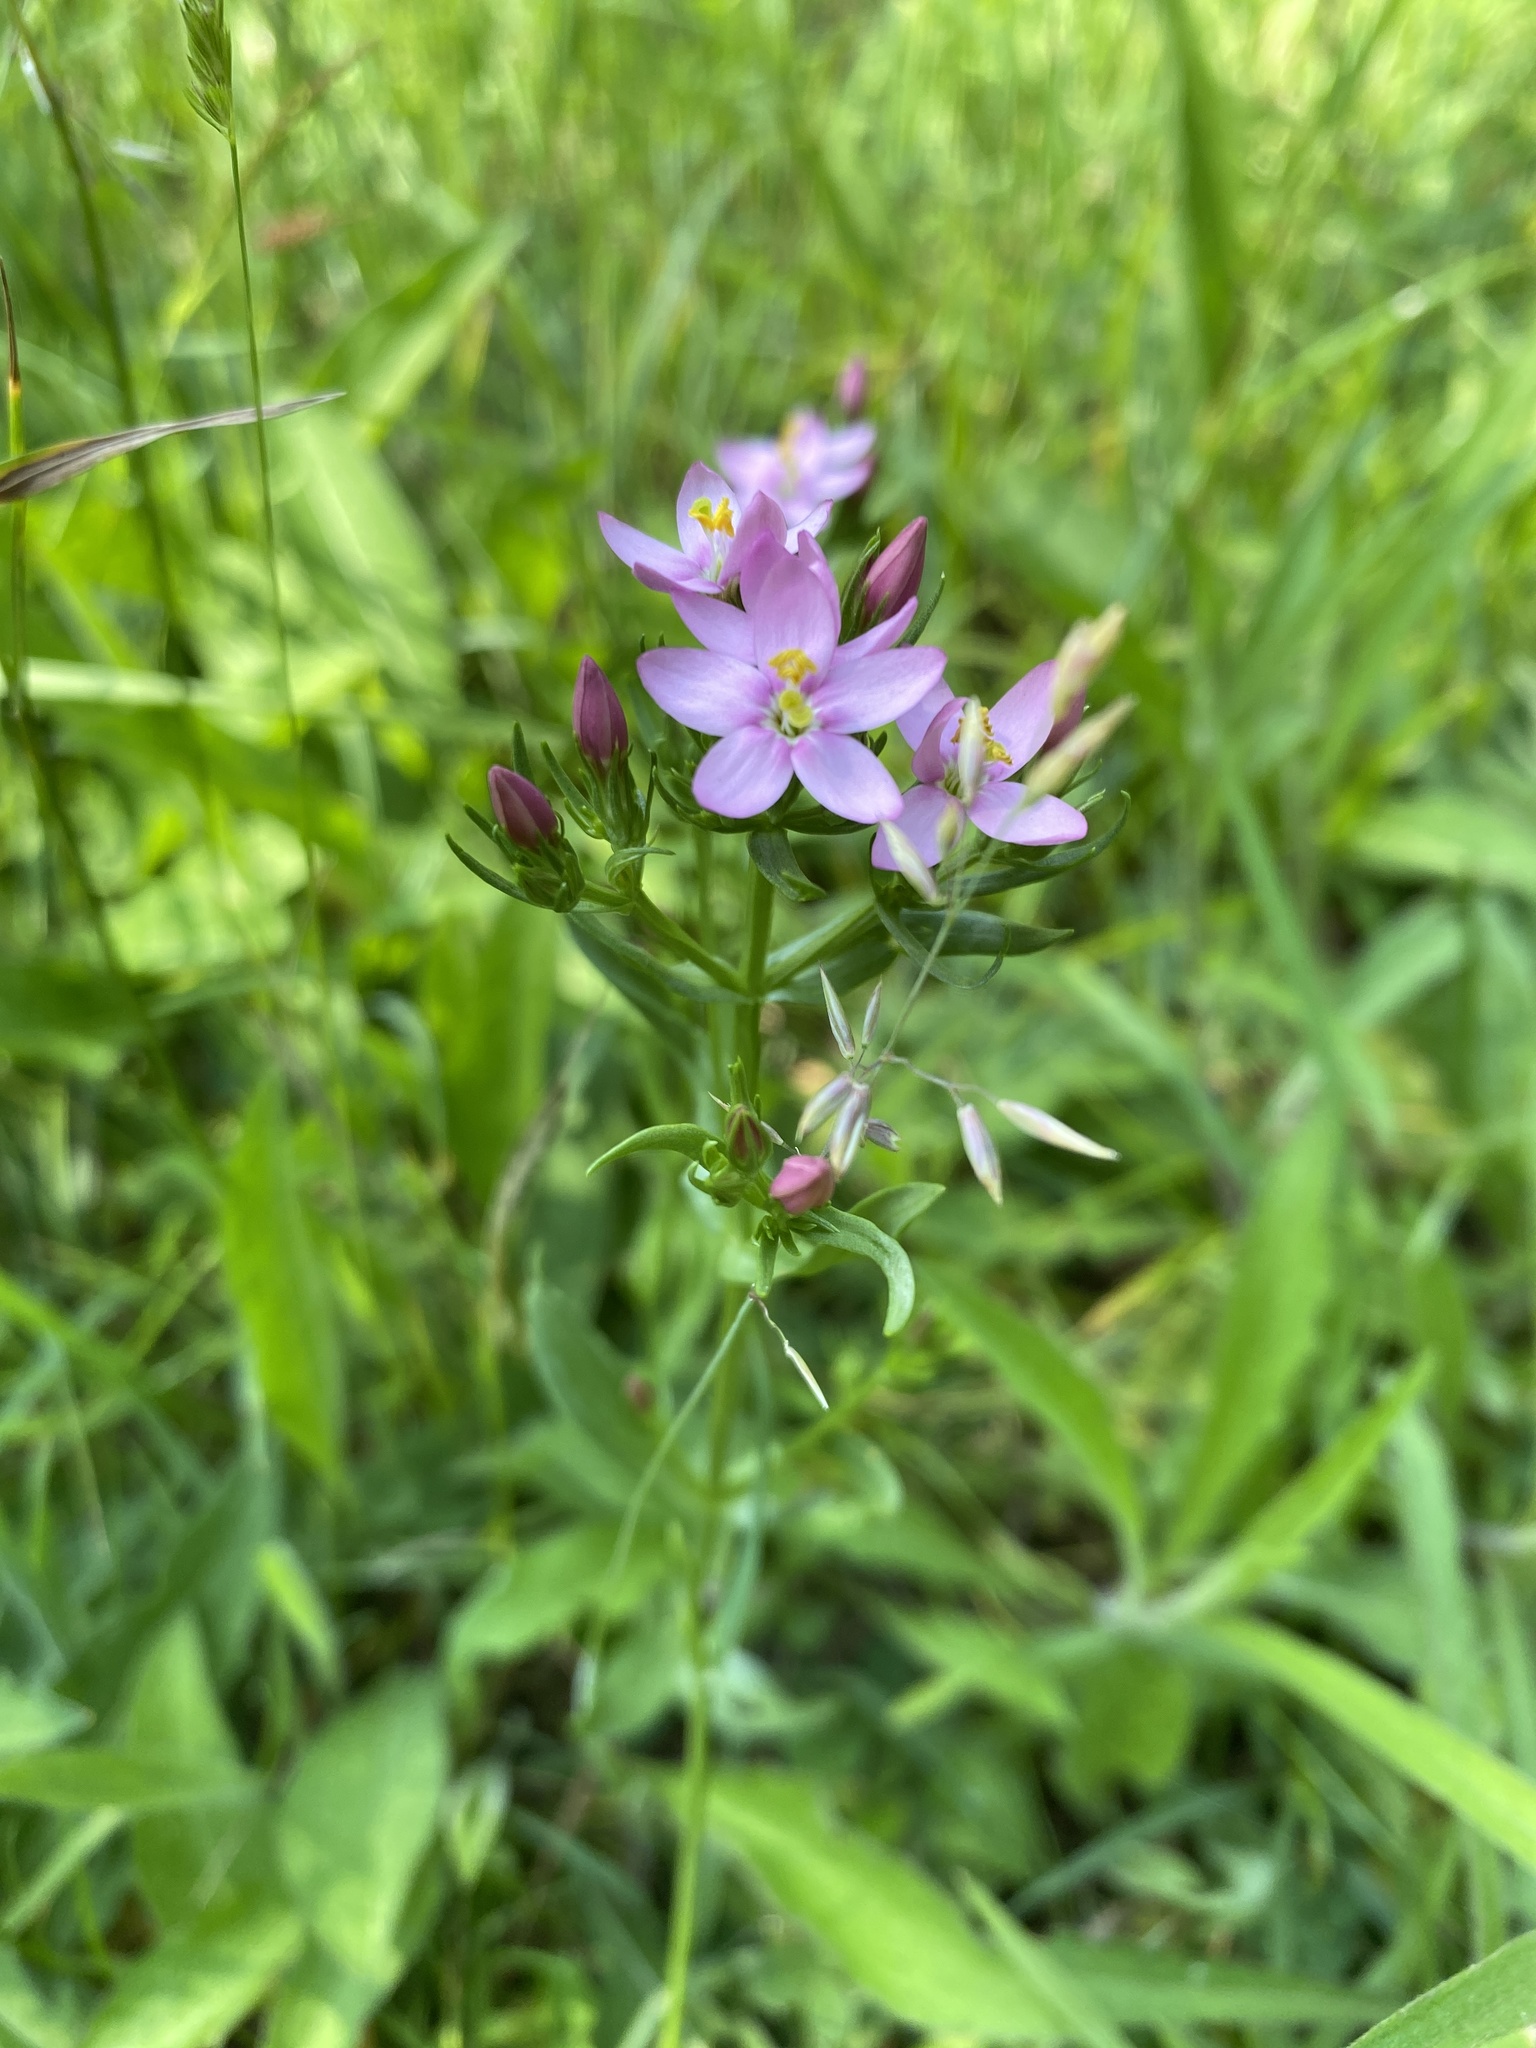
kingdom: Plantae
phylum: Tracheophyta
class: Magnoliopsida
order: Gentianales
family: Gentianaceae
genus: Centaurium
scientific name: Centaurium erythraea
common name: Common centaury
